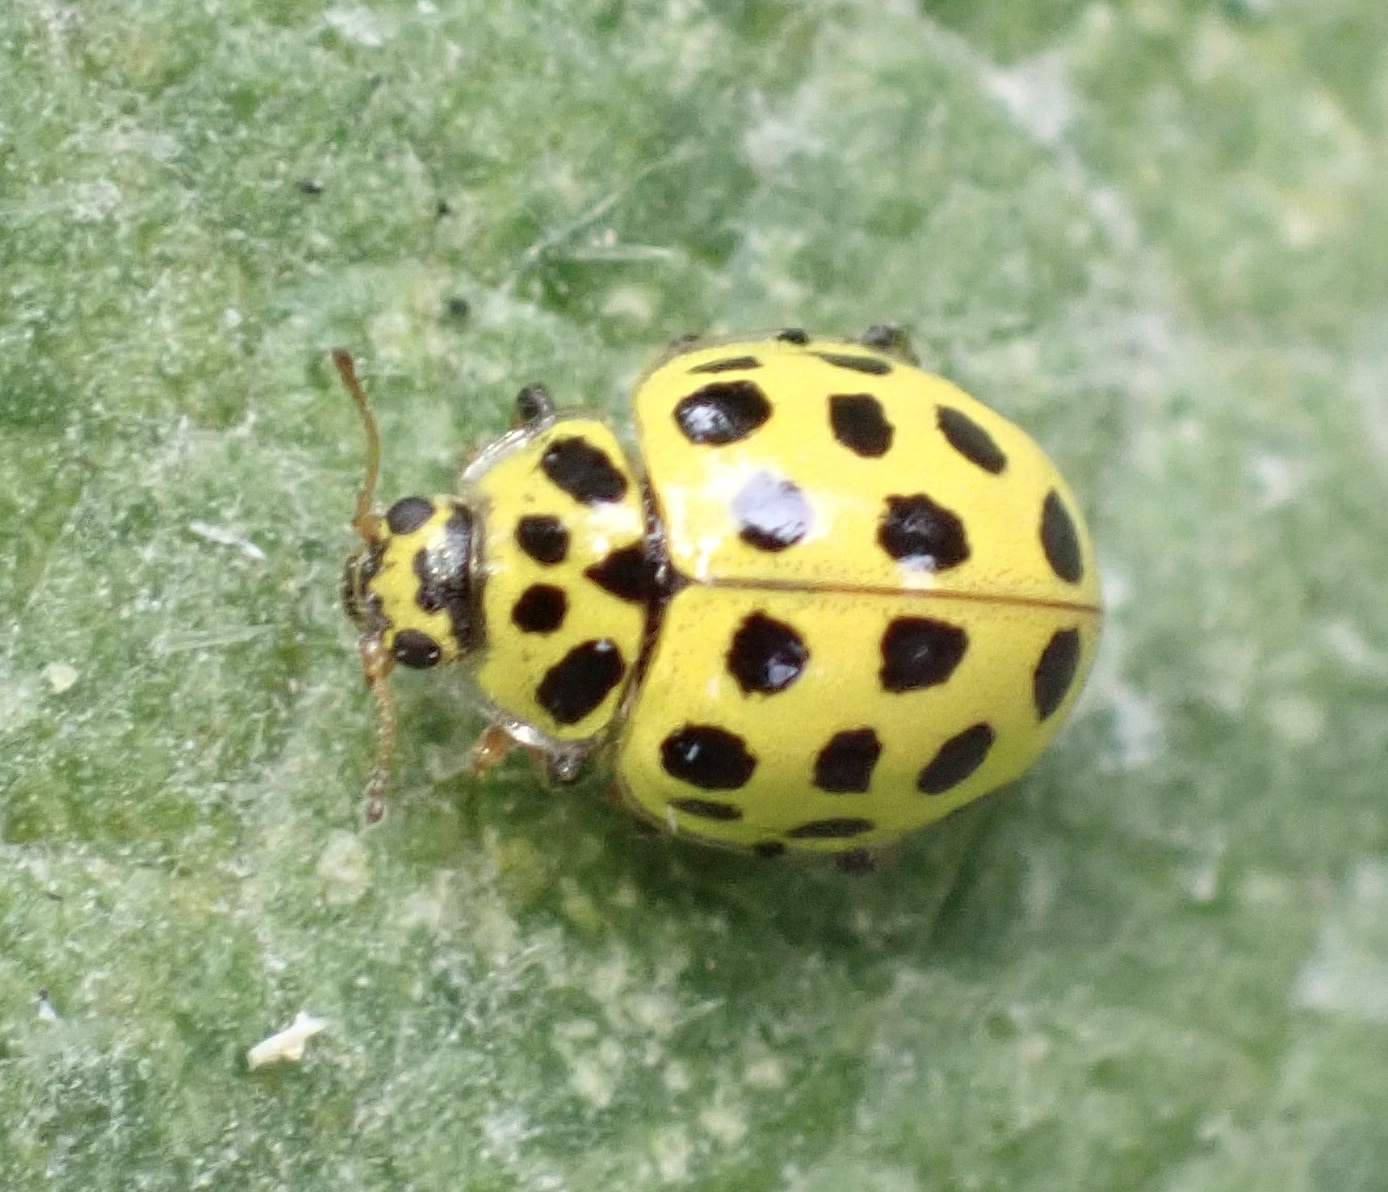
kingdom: Animalia
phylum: Arthropoda
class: Insecta
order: Coleoptera
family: Coccinellidae
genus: Psyllobora
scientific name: Psyllobora vigintiduopunctata
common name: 22-spot ladybird
